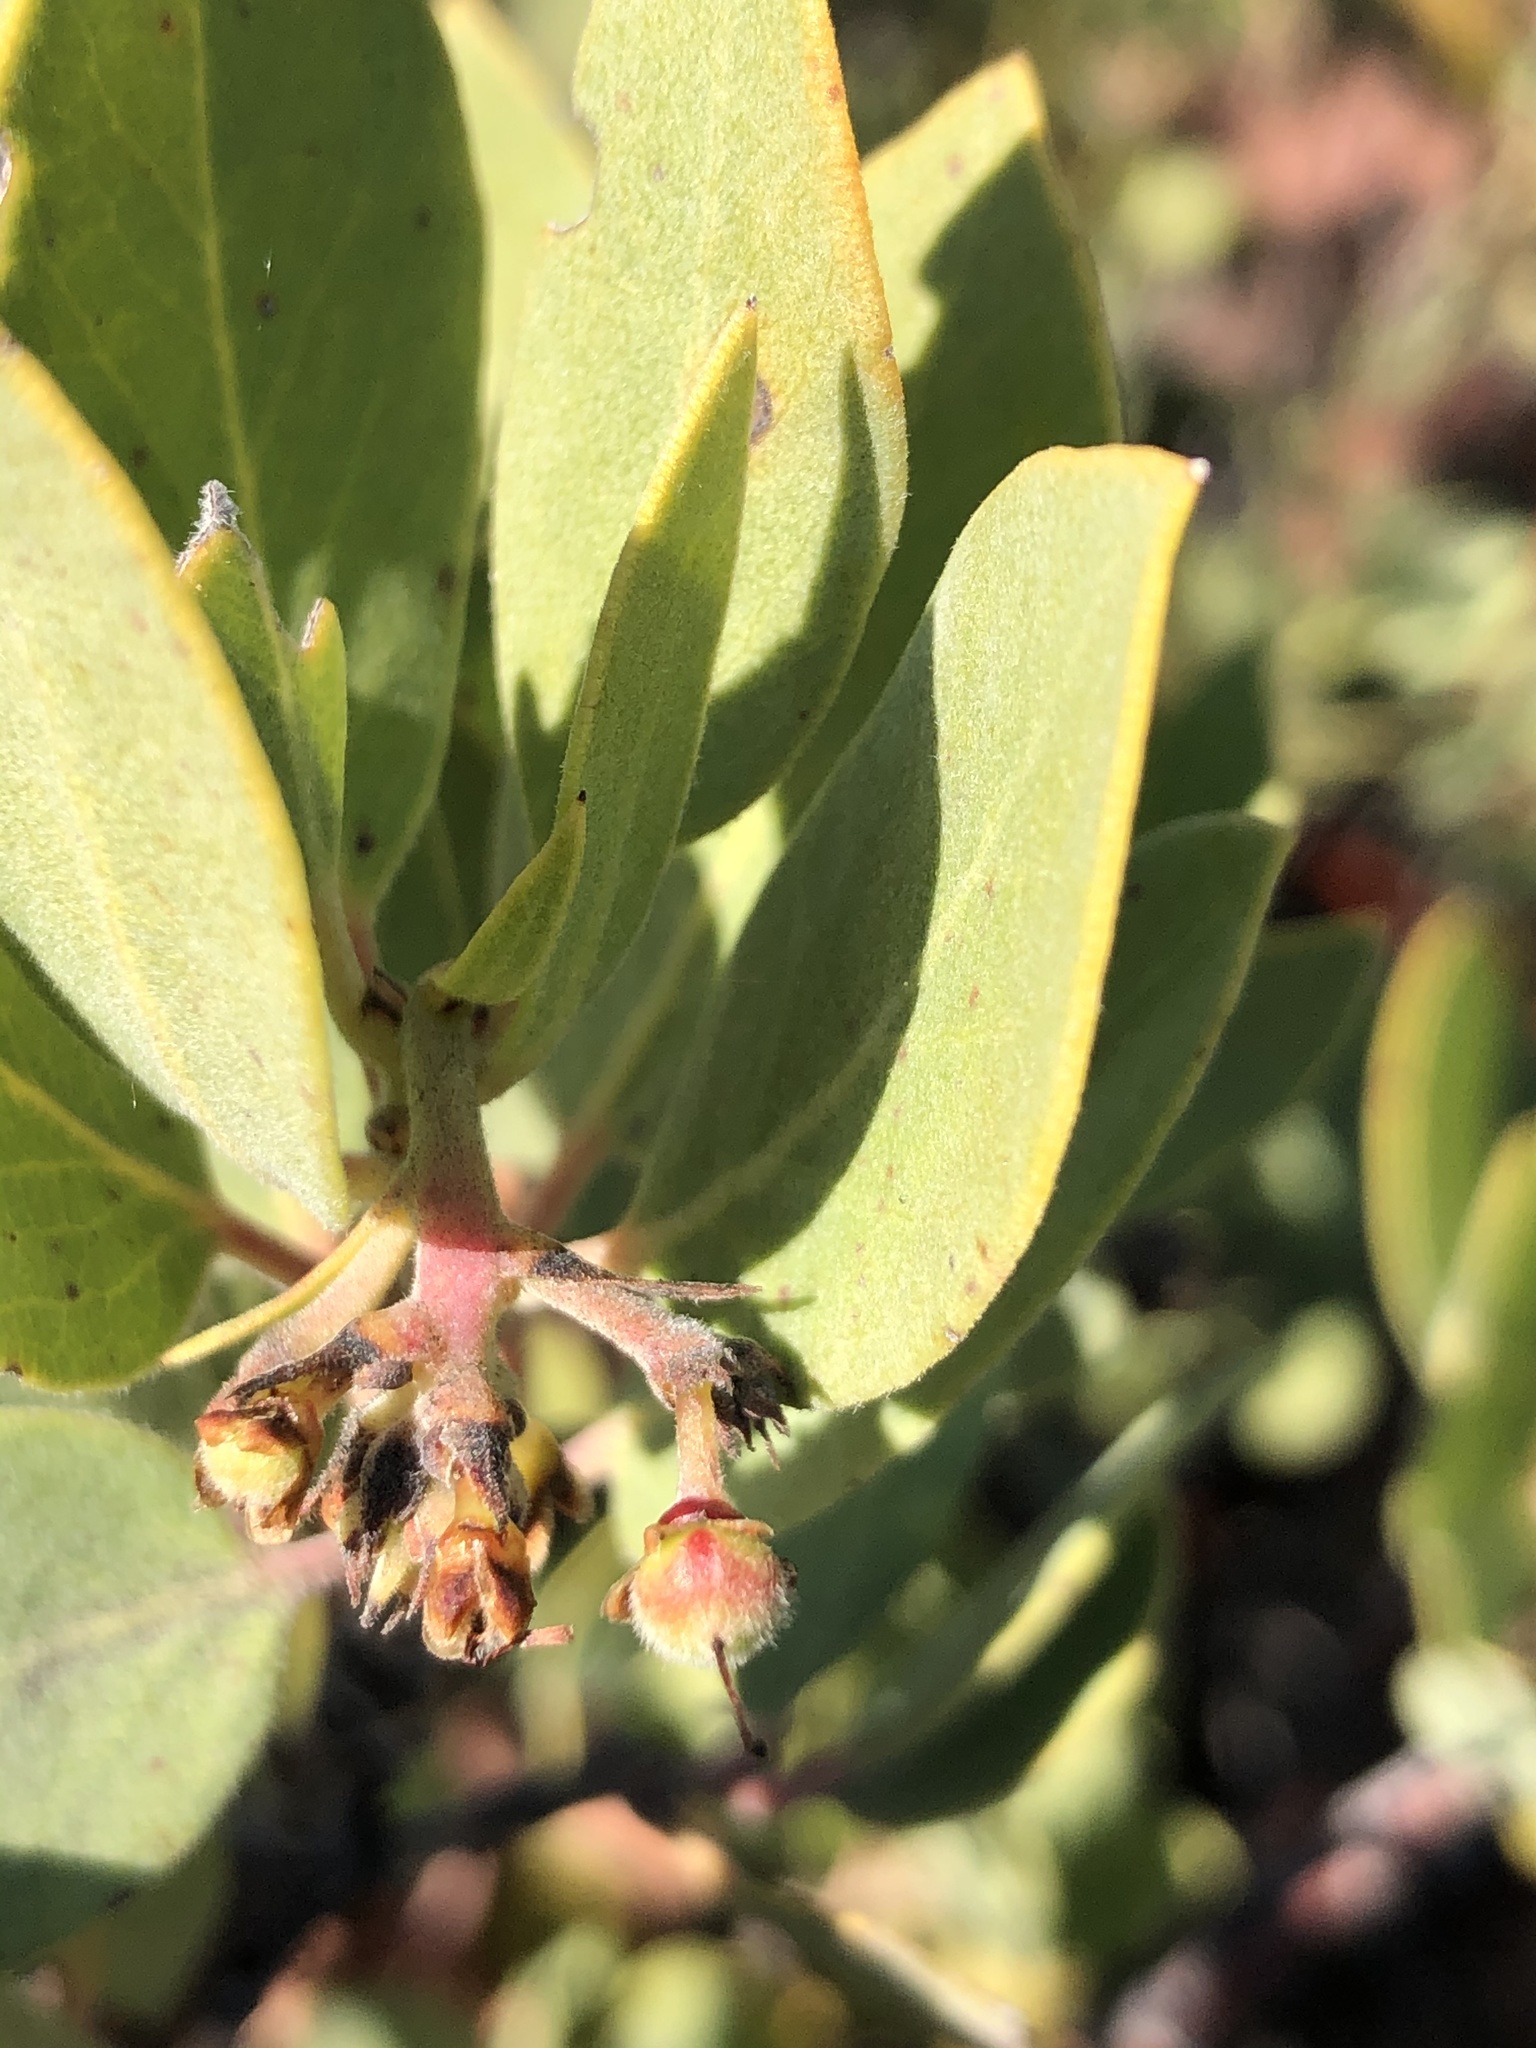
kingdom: Plantae
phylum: Tracheophyta
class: Magnoliopsida
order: Ericales
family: Ericaceae
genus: Arctostaphylos
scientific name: Arctostaphylos glandulosa
